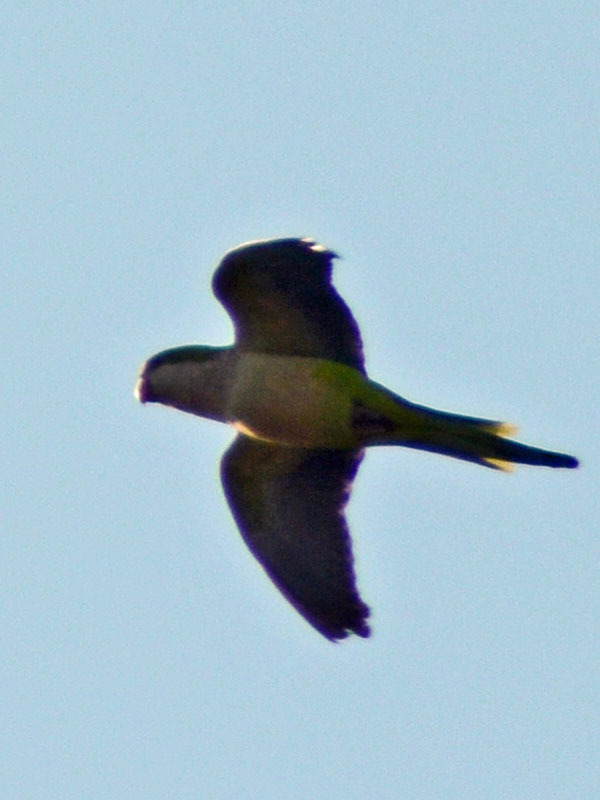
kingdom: Animalia
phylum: Chordata
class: Aves
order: Psittaciformes
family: Psittacidae
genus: Myiopsitta
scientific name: Myiopsitta monachus
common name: Monk parakeet
